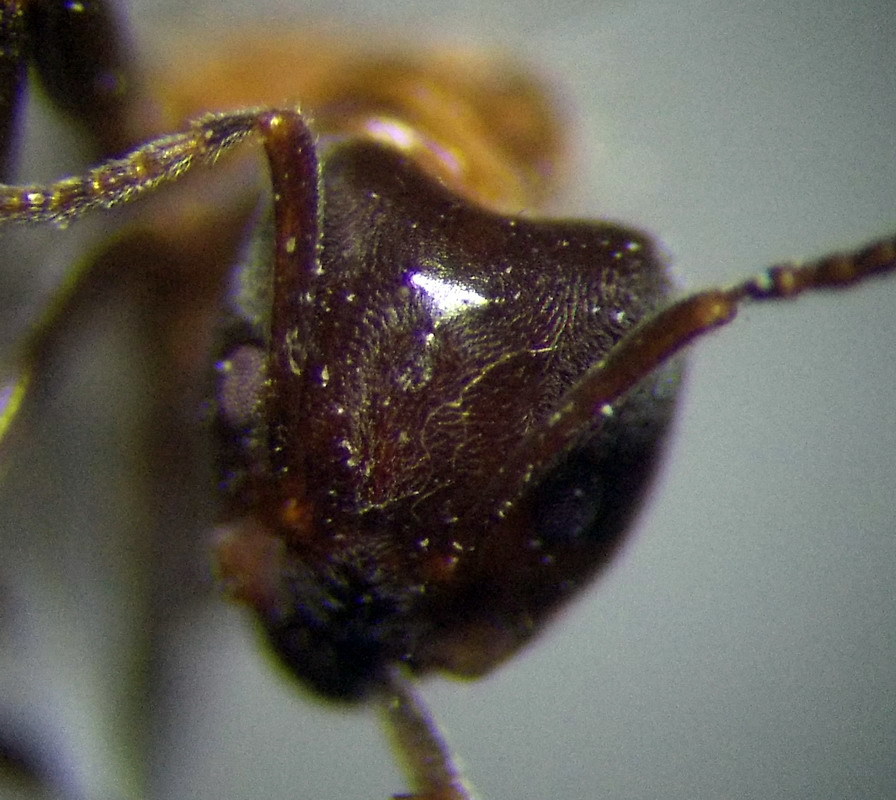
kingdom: Animalia
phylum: Arthropoda
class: Insecta
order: Hymenoptera
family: Formicidae
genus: Liometopum
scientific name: Liometopum microcephalum
